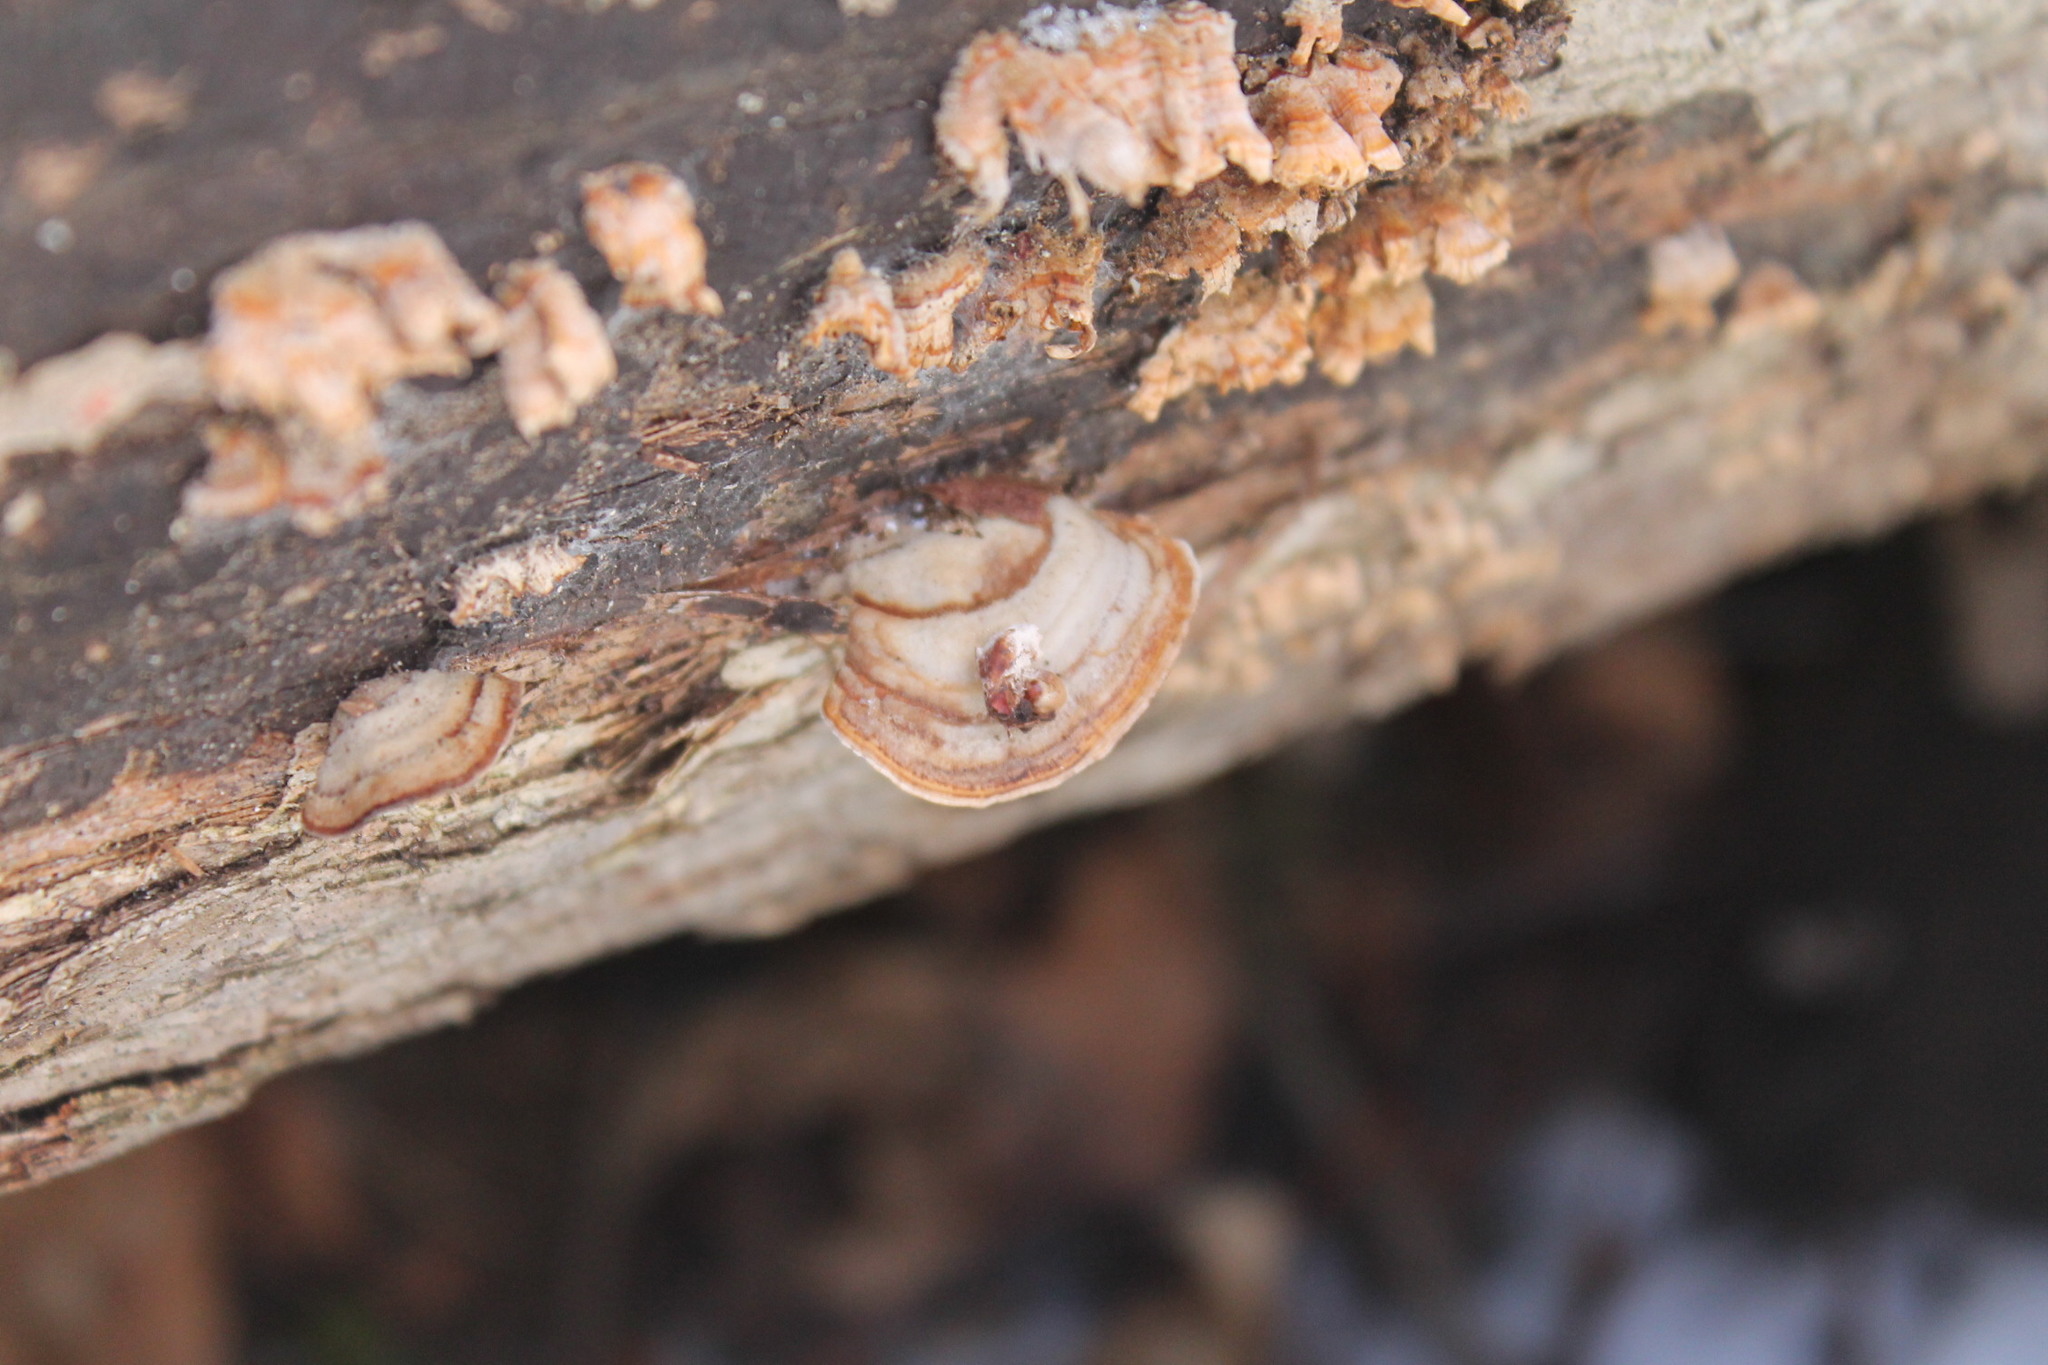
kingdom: Fungi
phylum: Basidiomycota
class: Agaricomycetes
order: Russulales
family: Stereaceae
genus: Stereum
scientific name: Stereum lobatum
